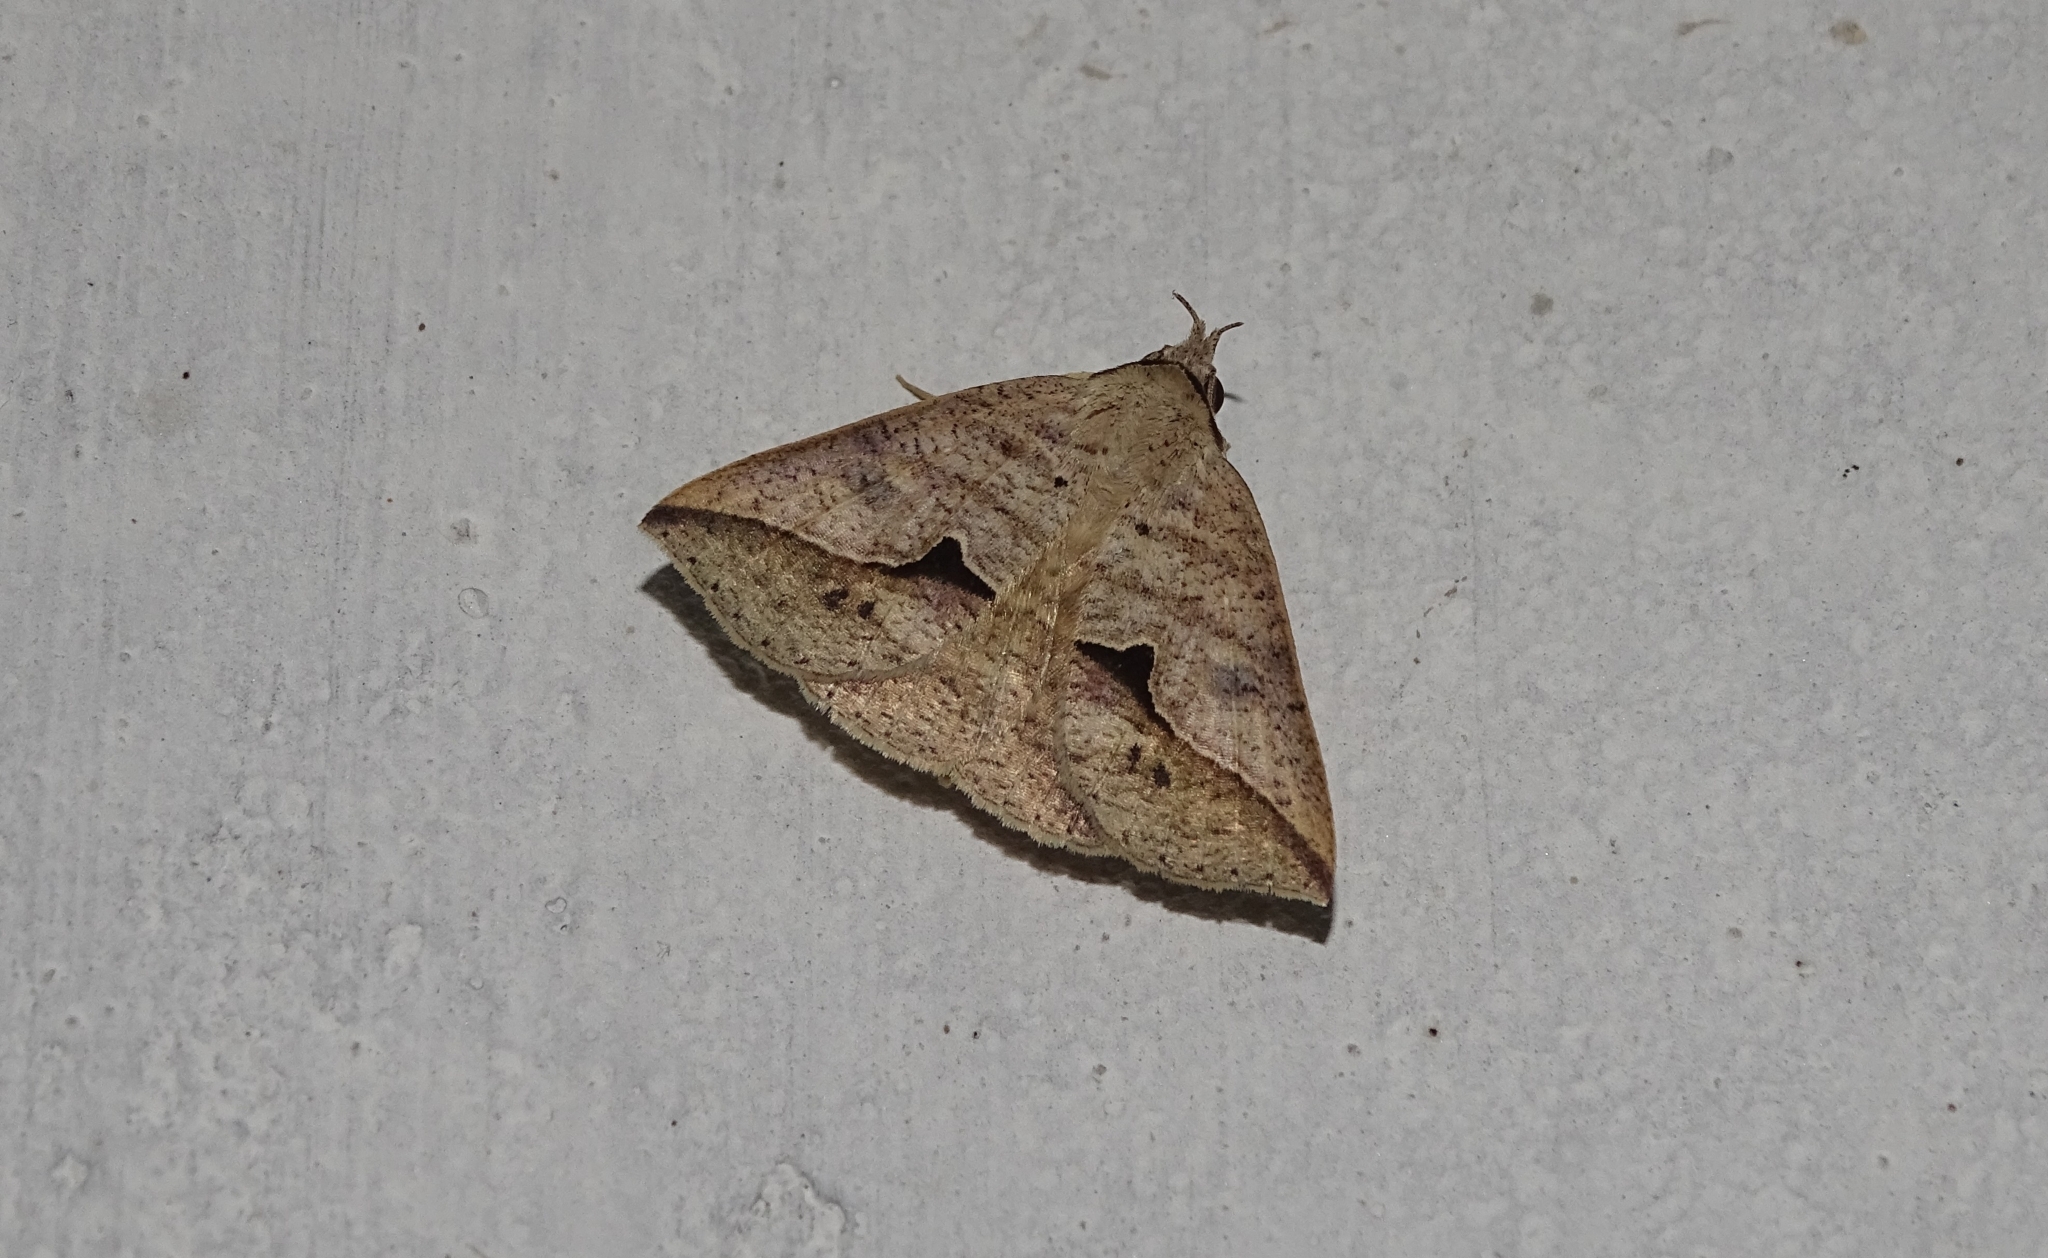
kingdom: Animalia
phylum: Arthropoda
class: Insecta
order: Lepidoptera
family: Erebidae
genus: Dierna
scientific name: Dierna patibulum
